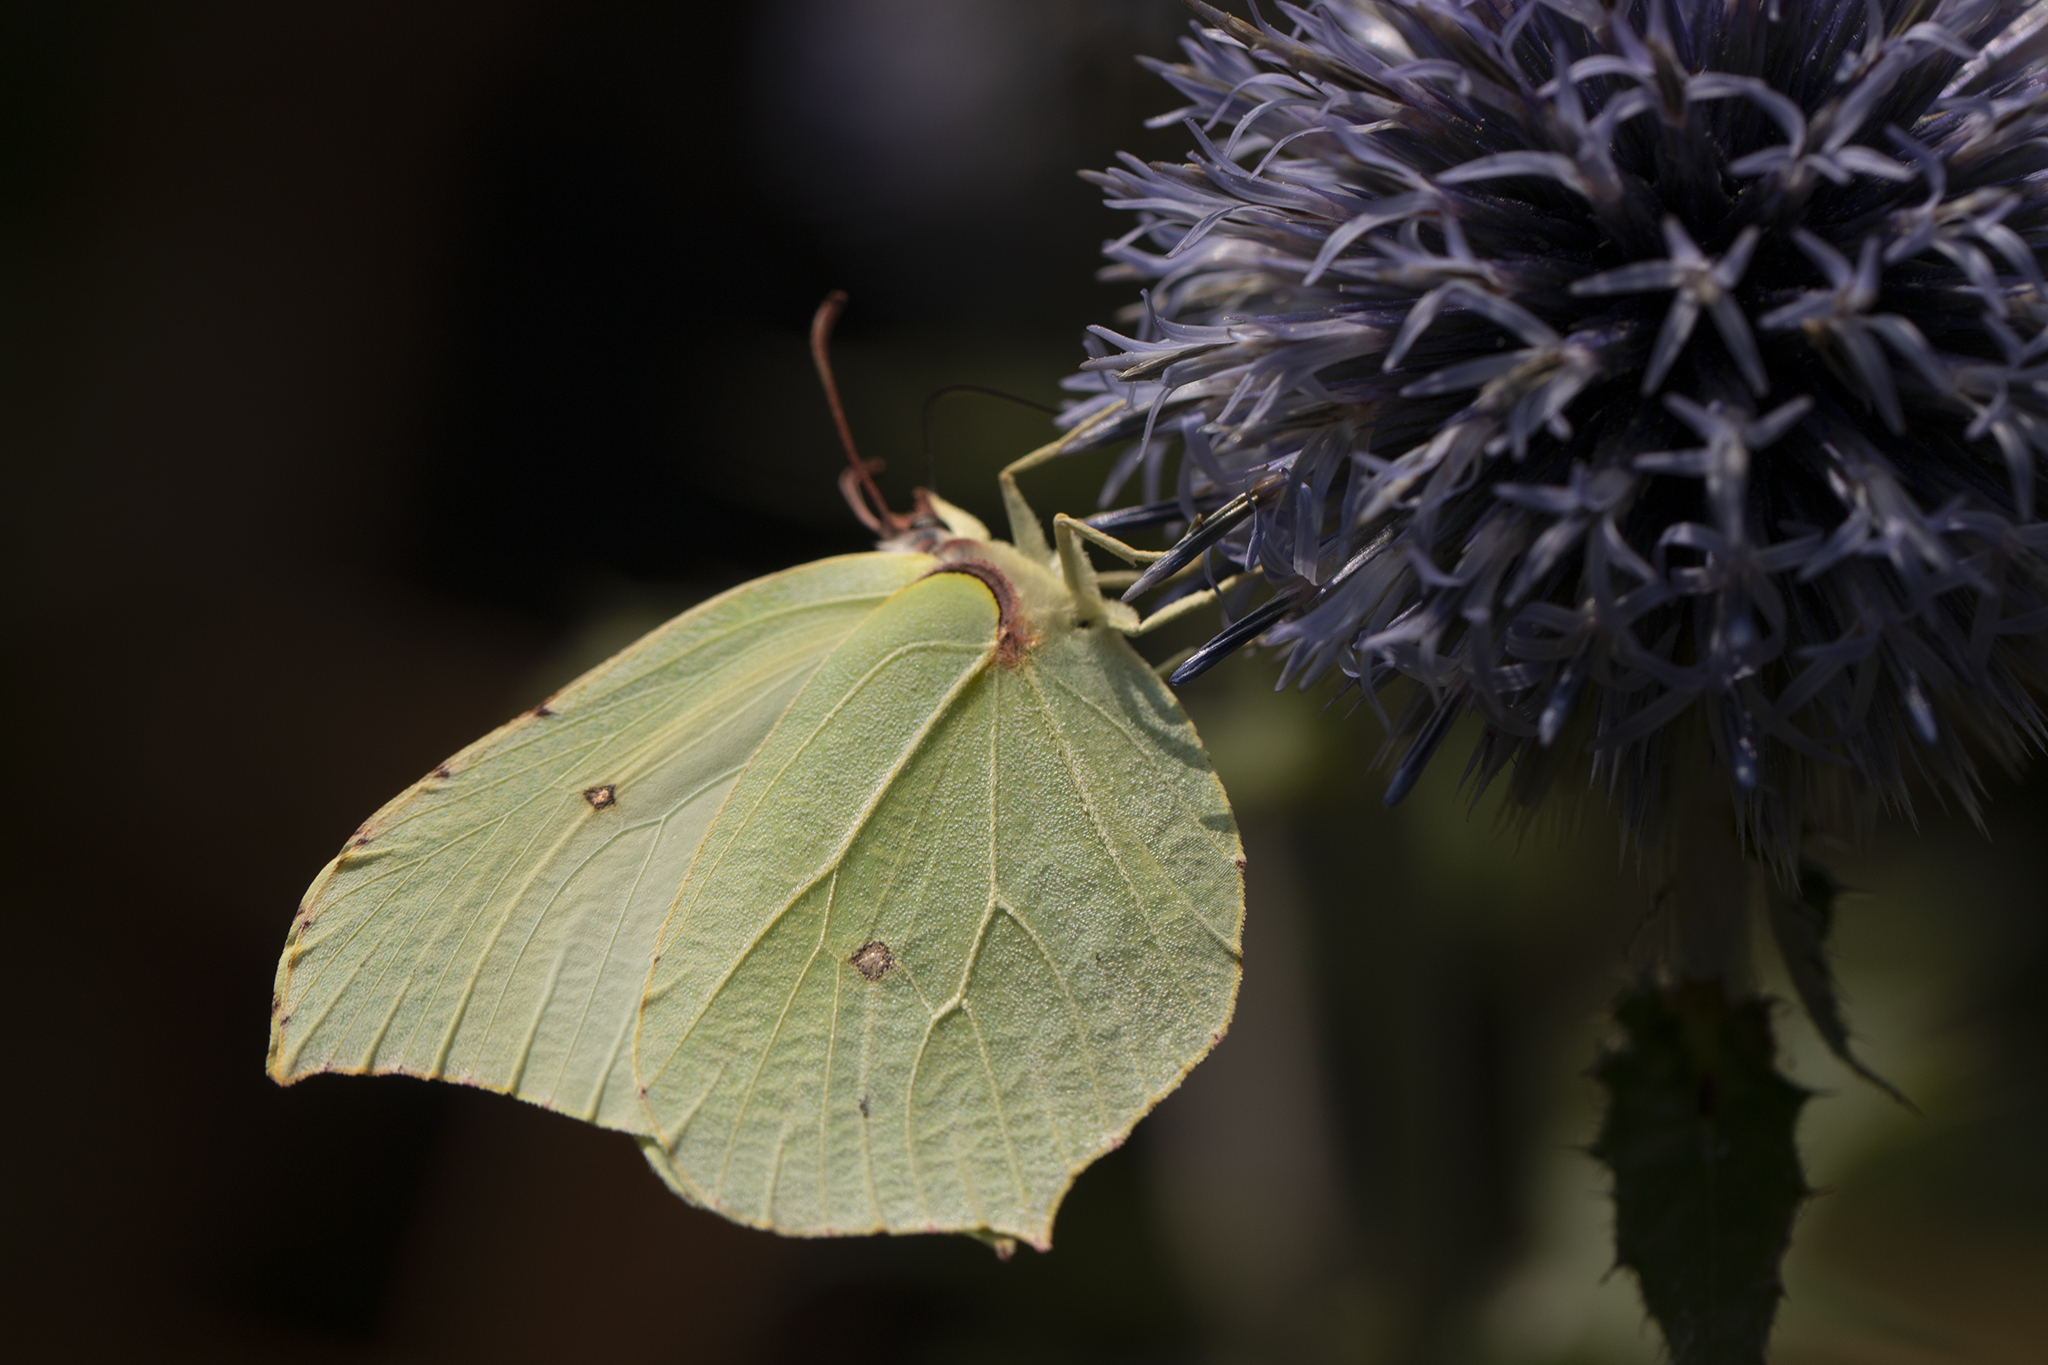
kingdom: Animalia
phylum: Arthropoda
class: Insecta
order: Lepidoptera
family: Pieridae
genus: Gonepteryx
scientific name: Gonepteryx rhamni
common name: Brimstone
